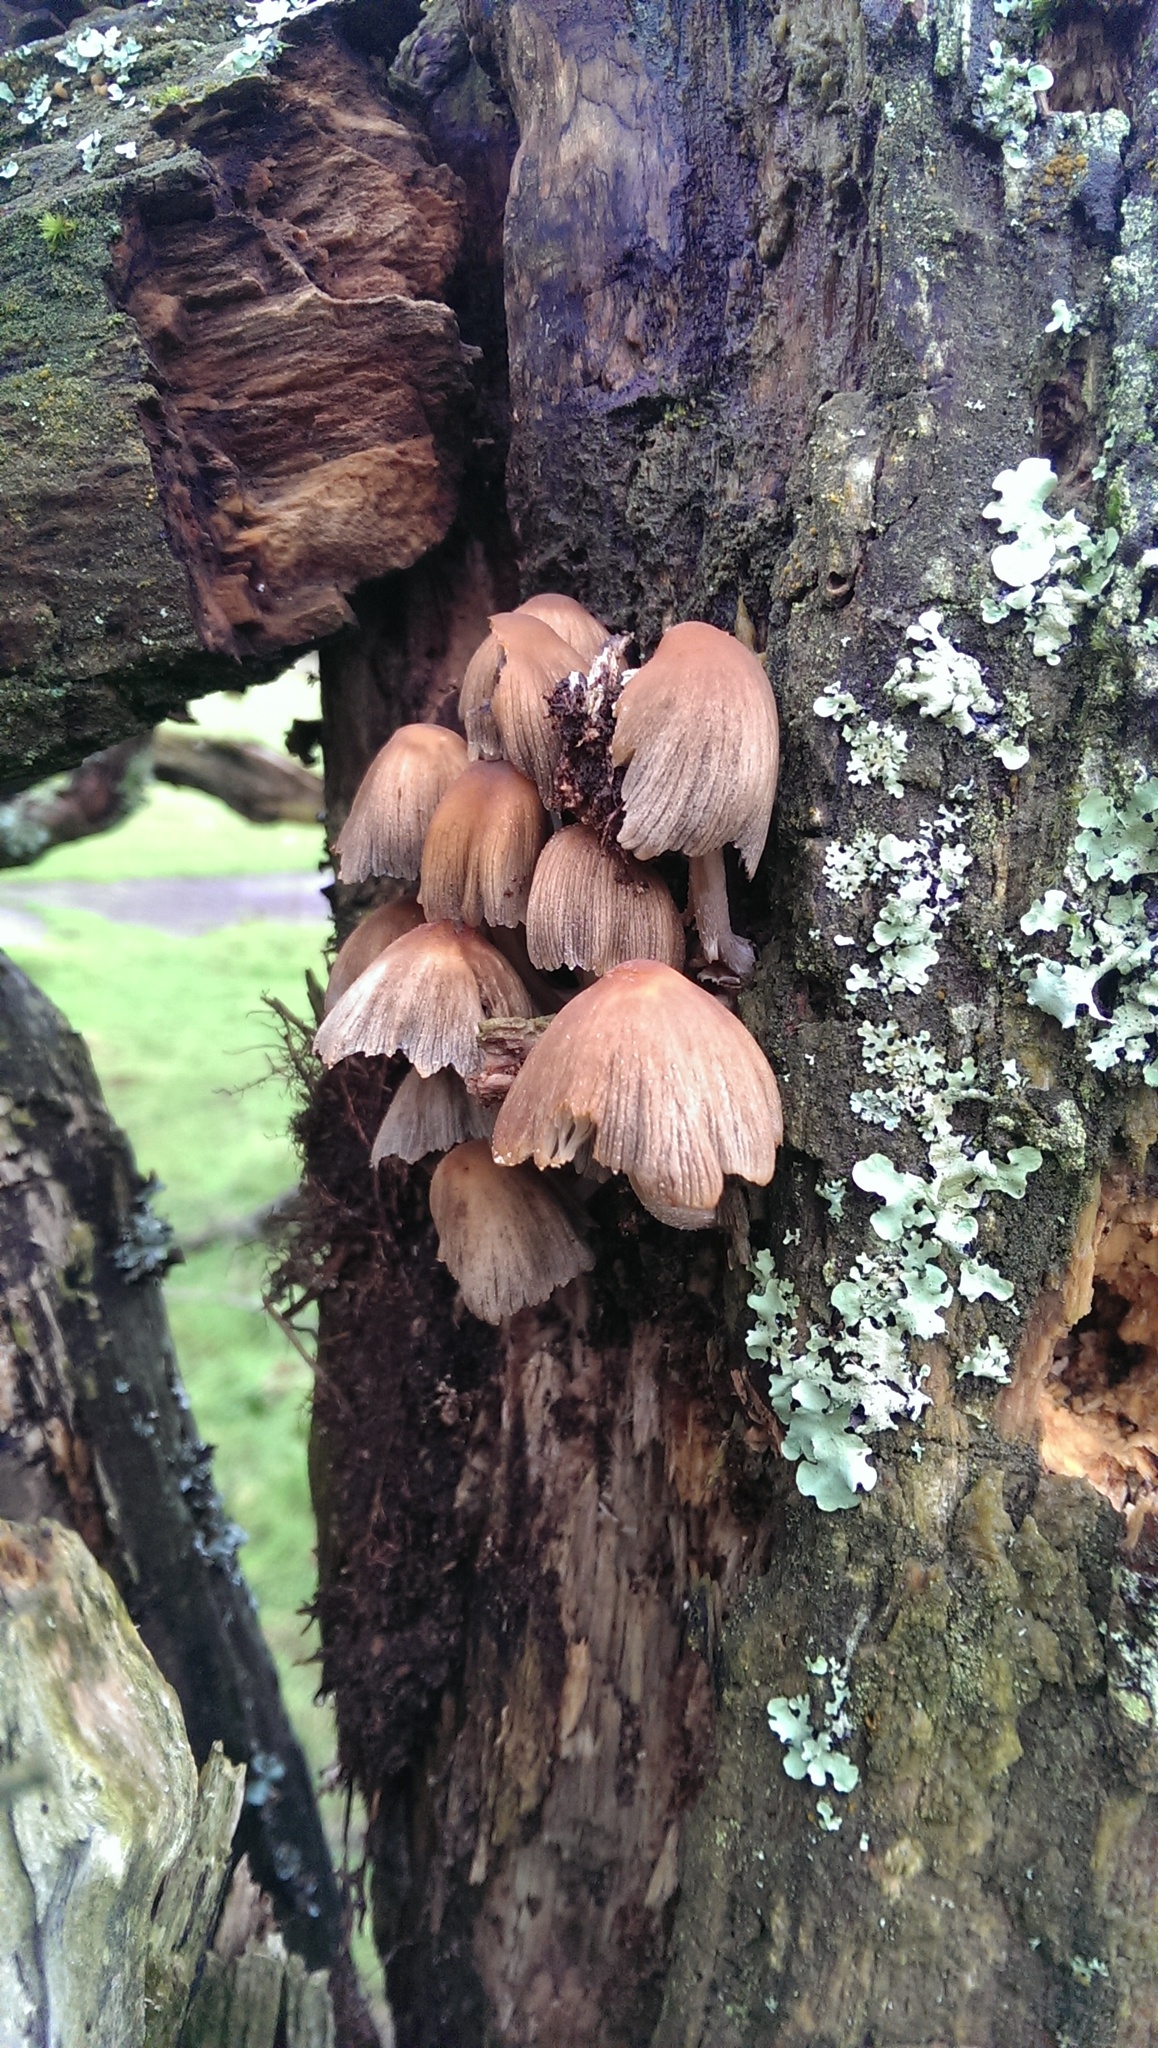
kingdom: Fungi
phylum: Basidiomycota
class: Agaricomycetes
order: Agaricales
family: Psathyrellaceae
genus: Coprinellus
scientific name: Coprinellus micaceus
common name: Glistening ink-cap
